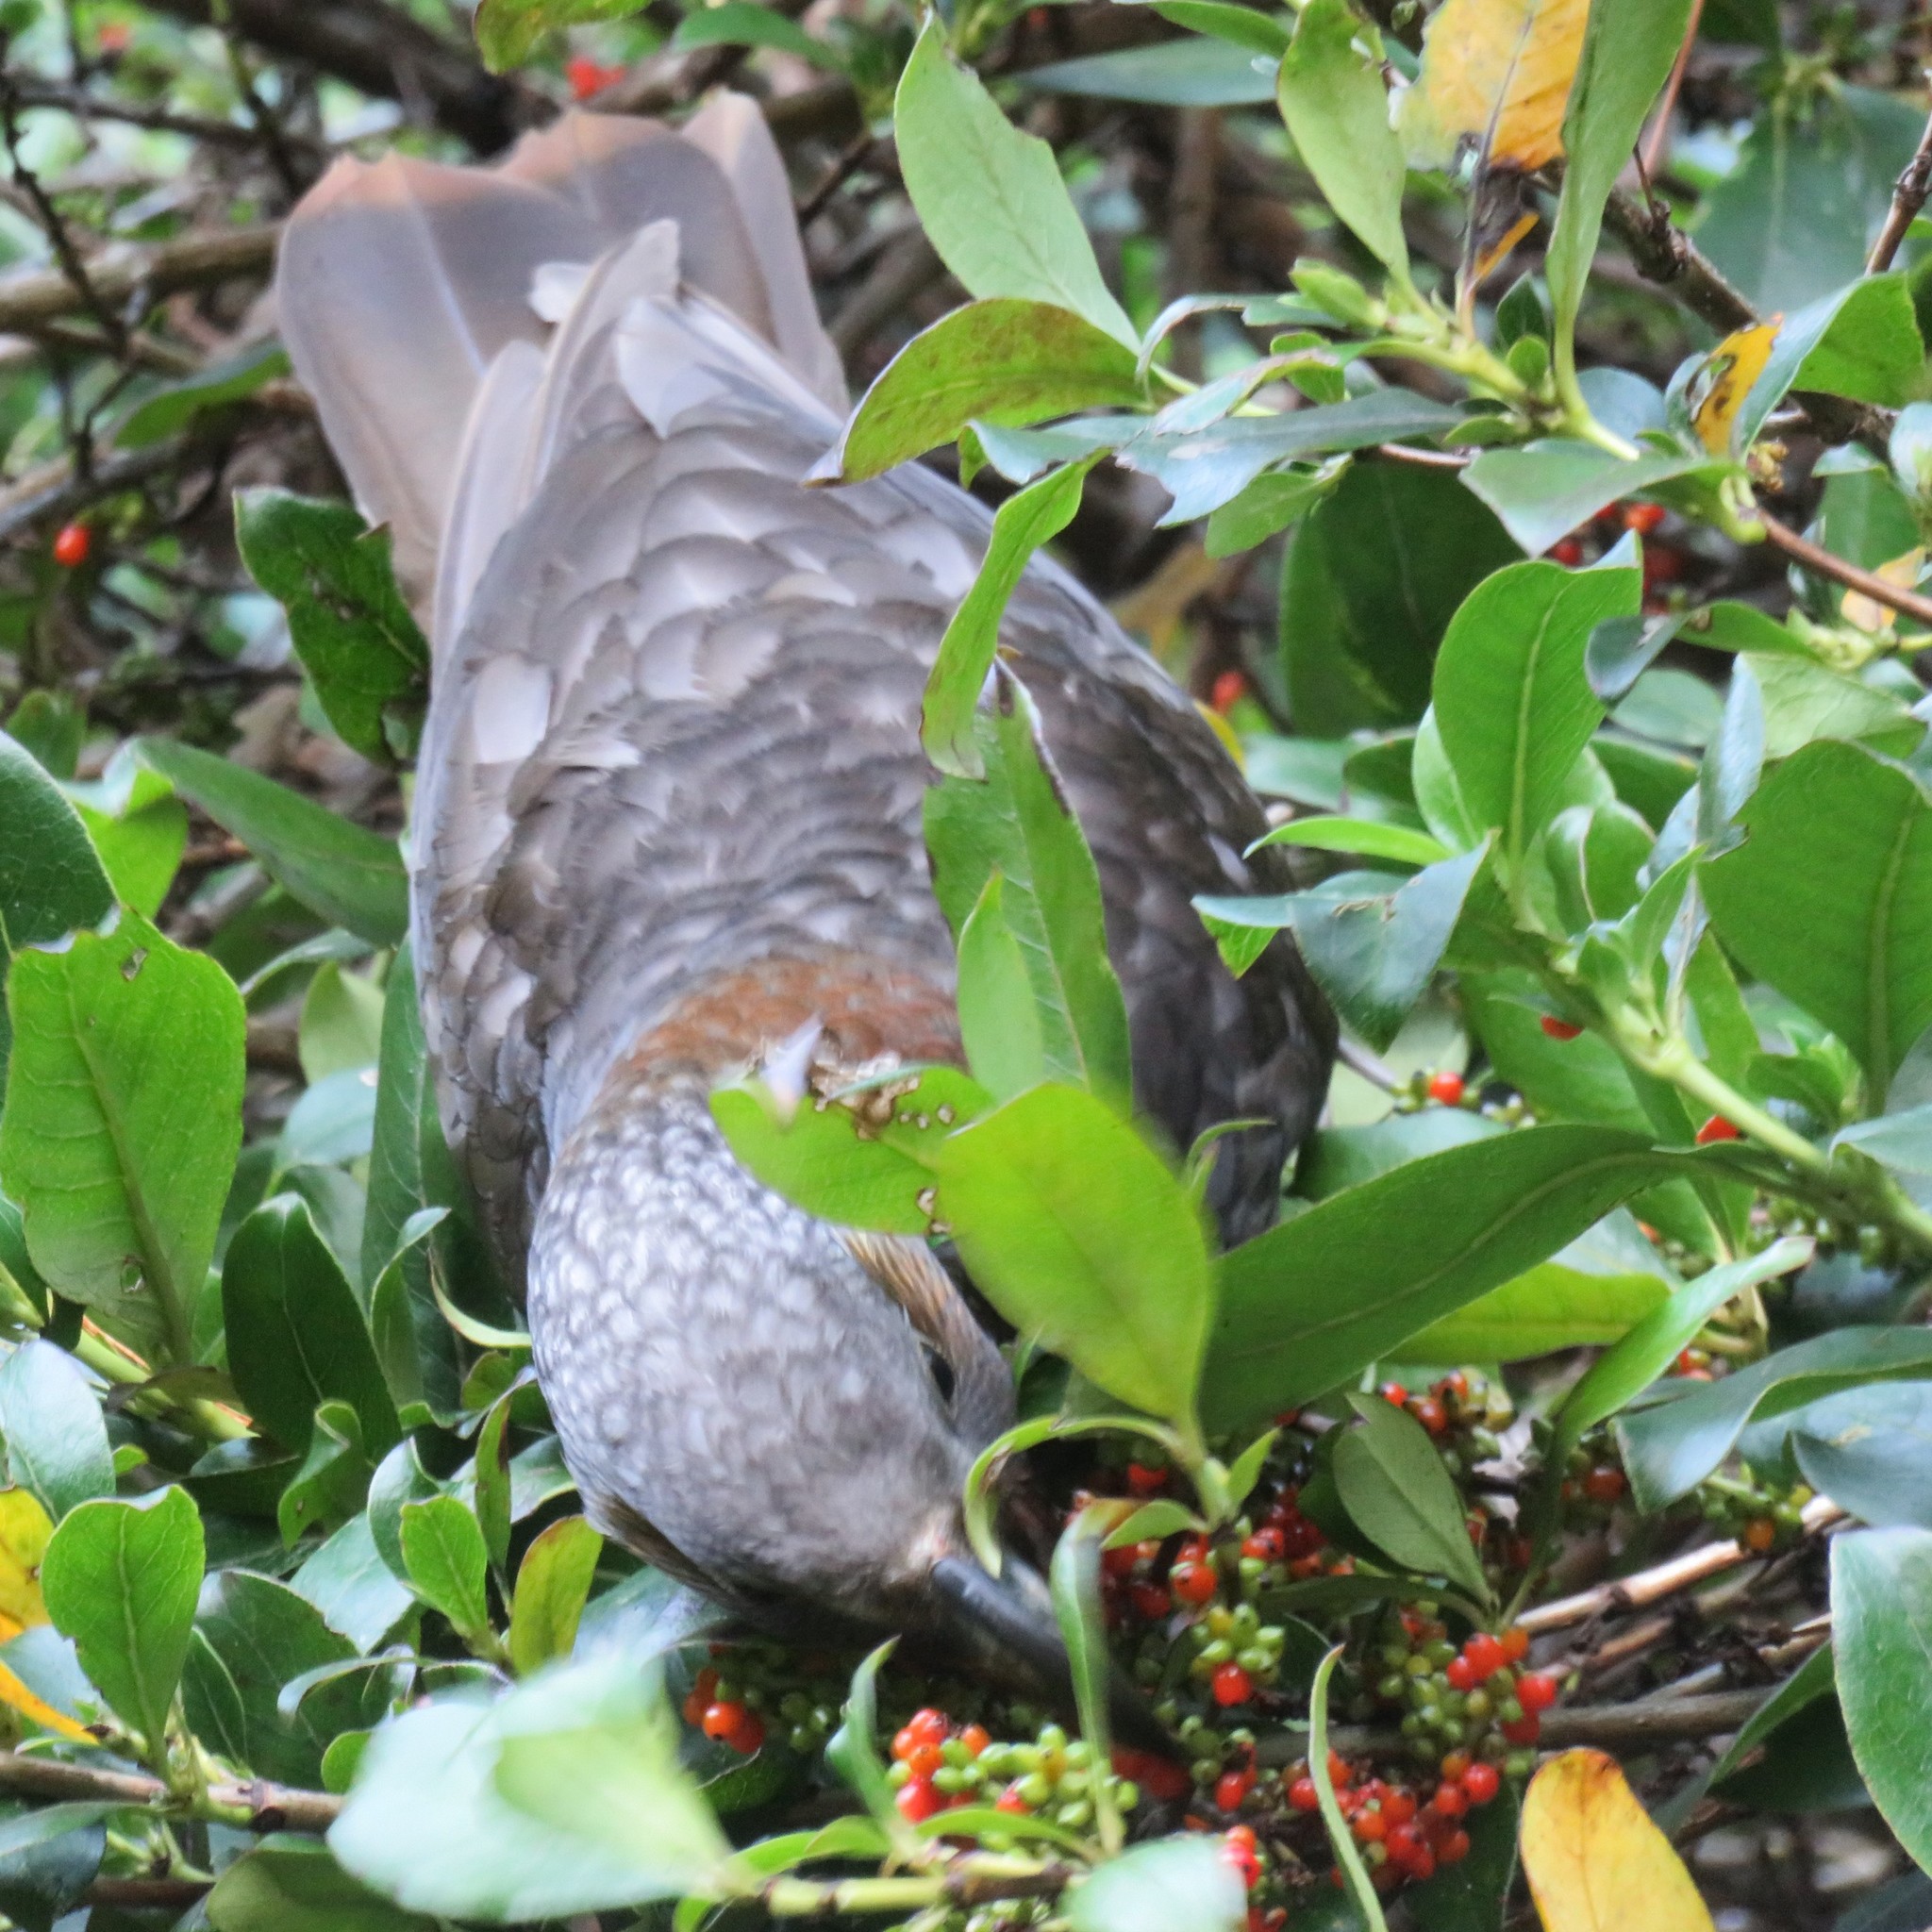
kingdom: Animalia
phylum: Chordata
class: Aves
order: Psittaciformes
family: Psittacidae
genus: Nestor
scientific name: Nestor meridionalis
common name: New zealand kaka
